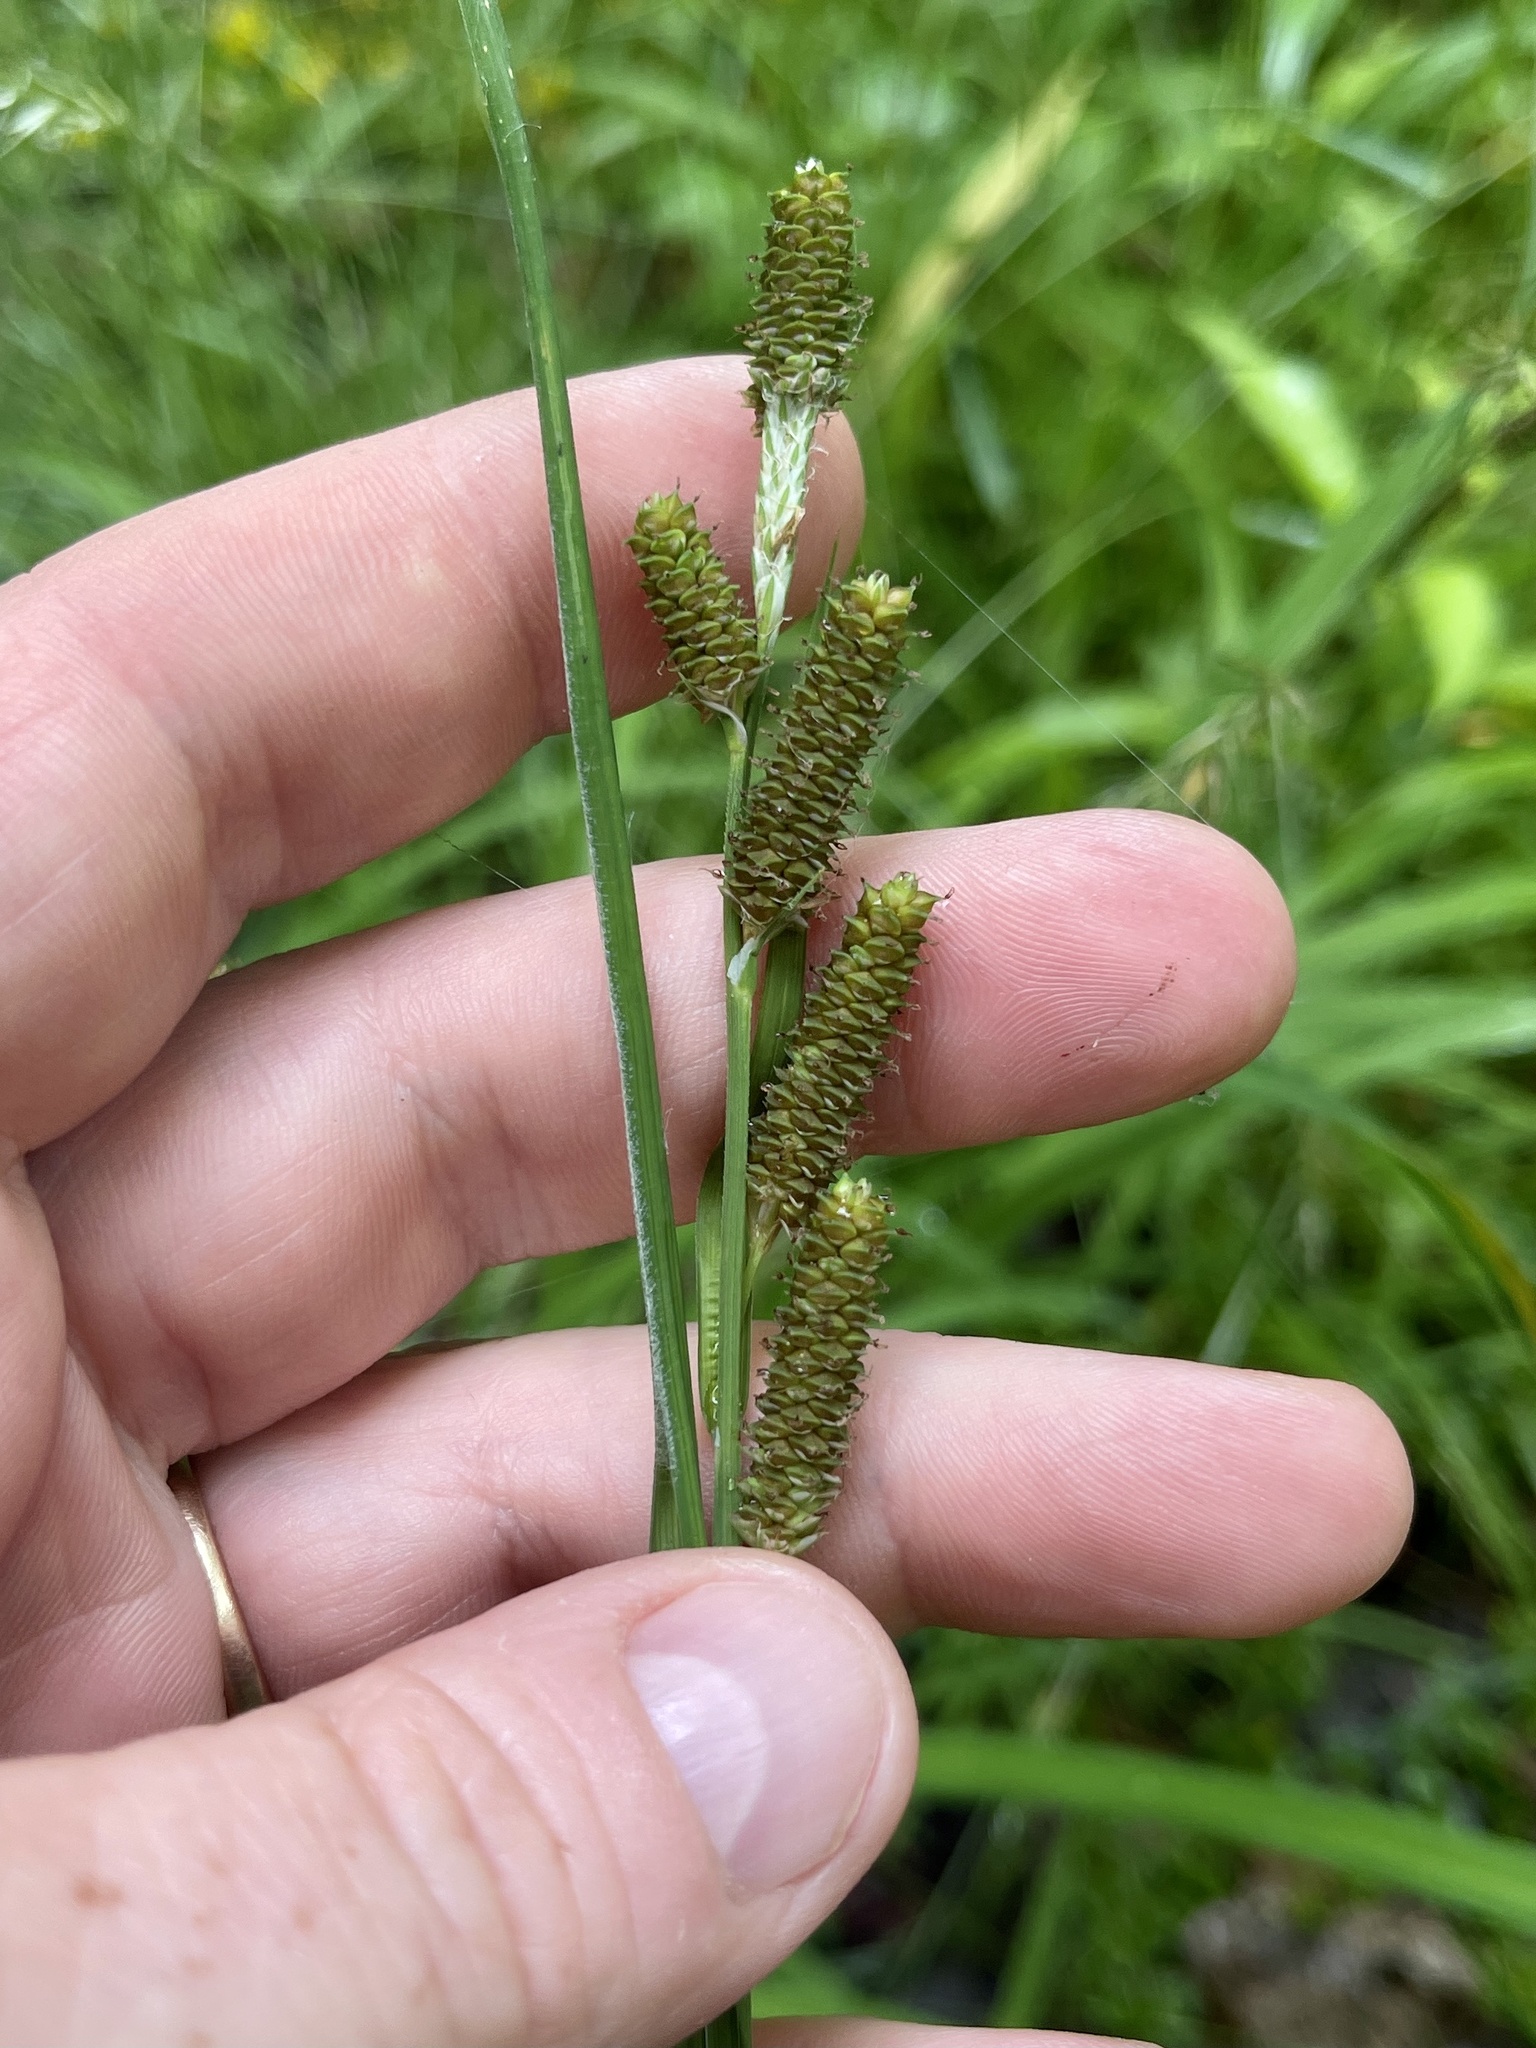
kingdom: Plantae
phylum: Tracheophyta
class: Liliopsida
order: Poales
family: Cyperaceae
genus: Carex
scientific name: Carex shortiana
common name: Short's sedge
